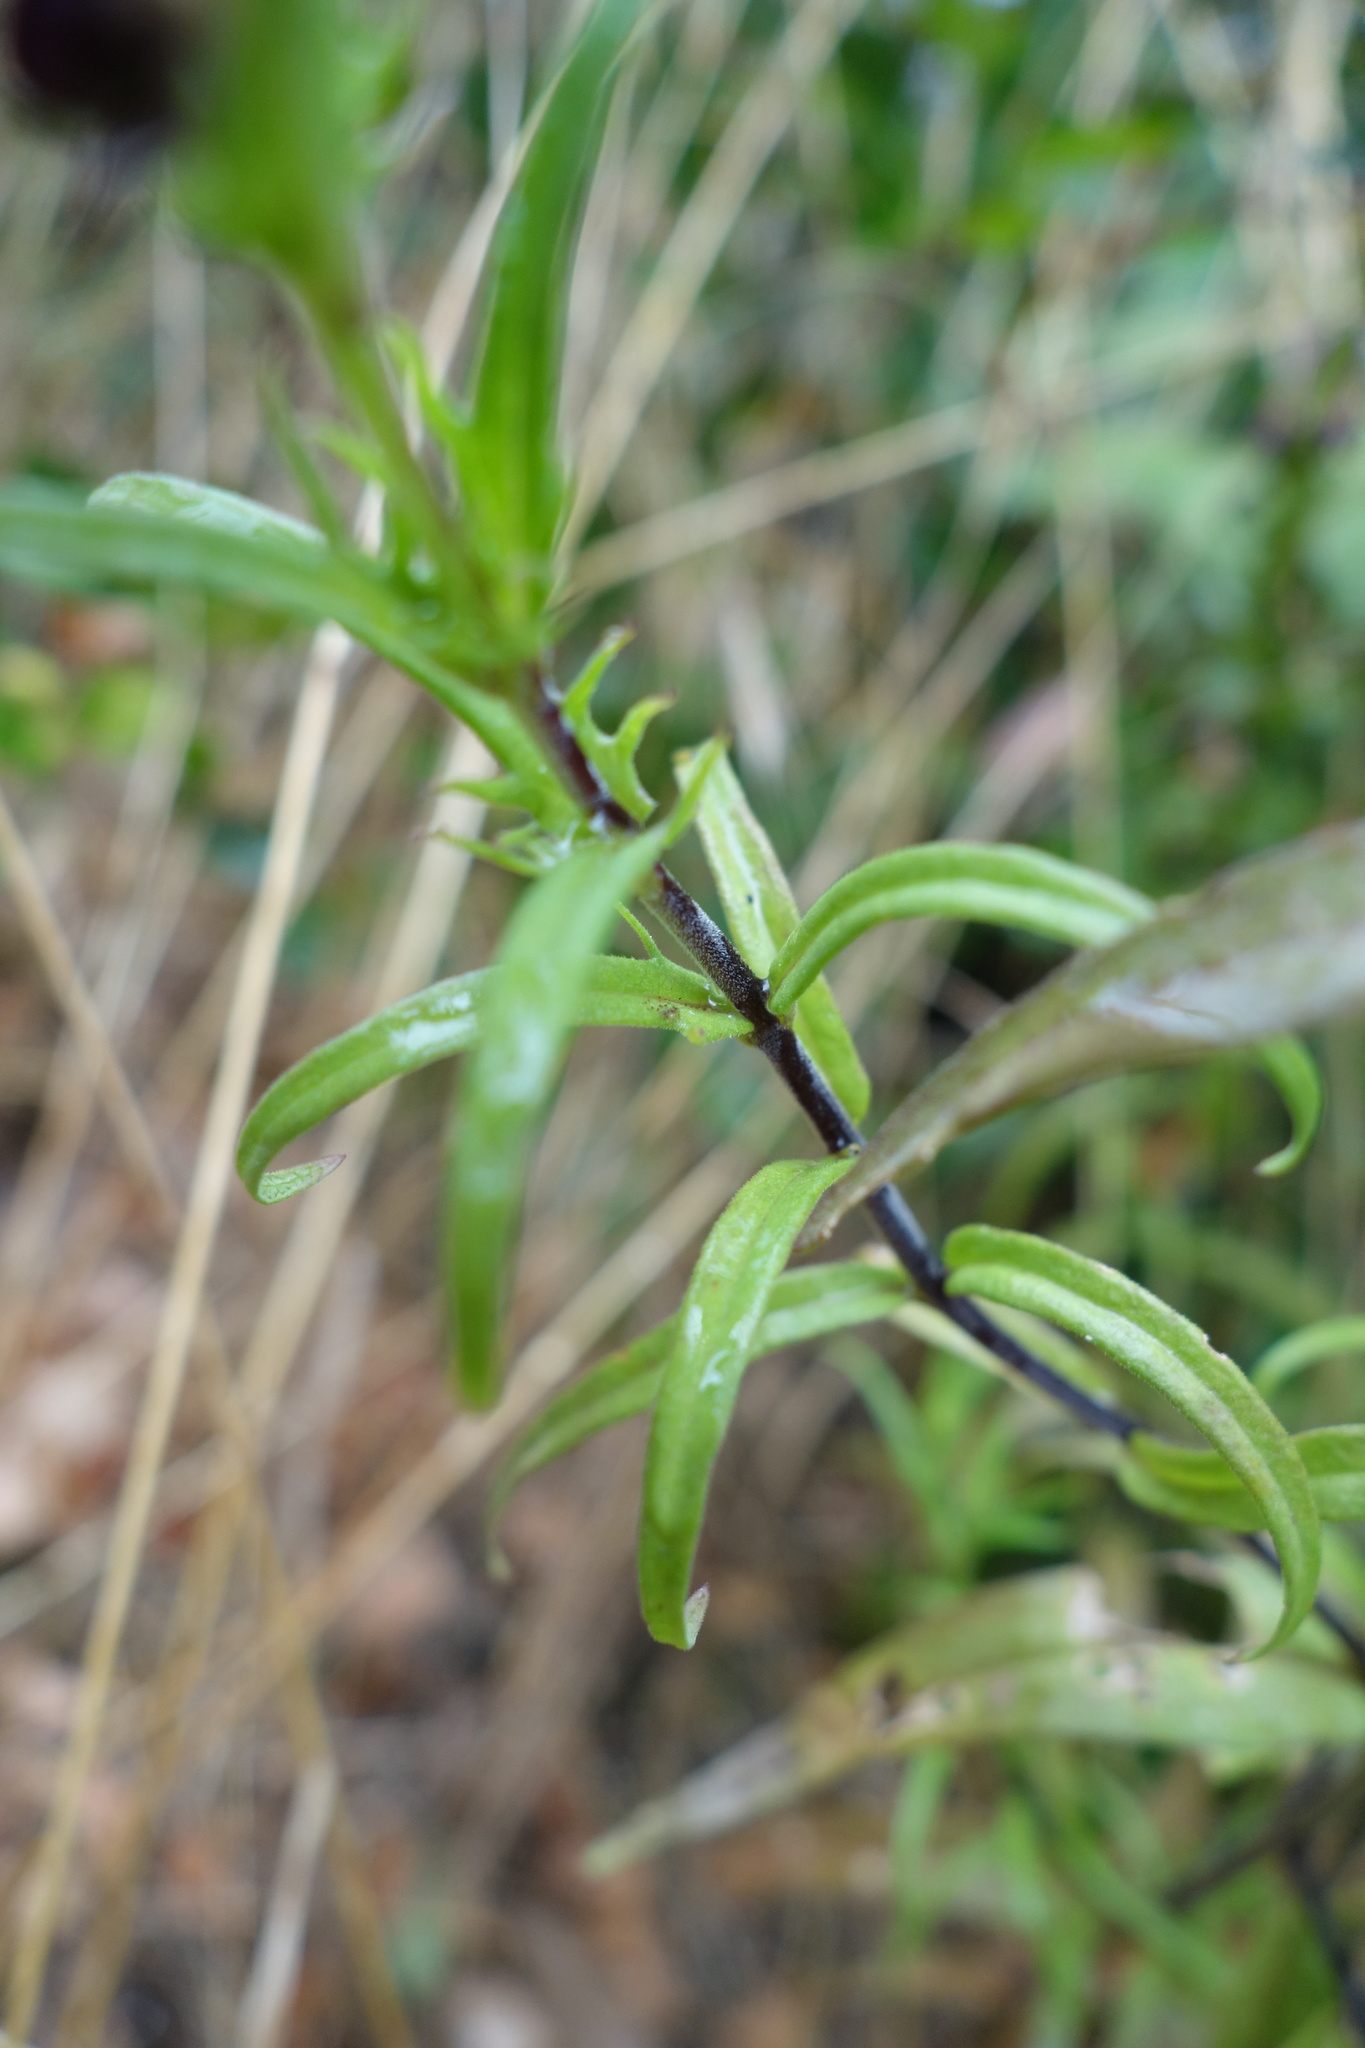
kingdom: Plantae
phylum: Tracheophyta
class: Magnoliopsida
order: Lamiales
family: Orobanchaceae
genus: Melampyrum
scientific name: Melampyrum arvense
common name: Field cow-wheat
